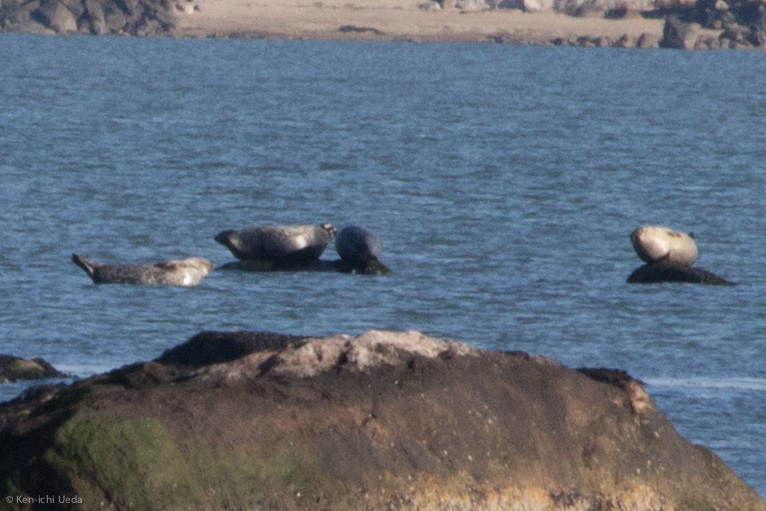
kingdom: Animalia
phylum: Chordata
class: Mammalia
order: Carnivora
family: Phocidae
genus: Phoca
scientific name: Phoca vitulina
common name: Harbor seal
